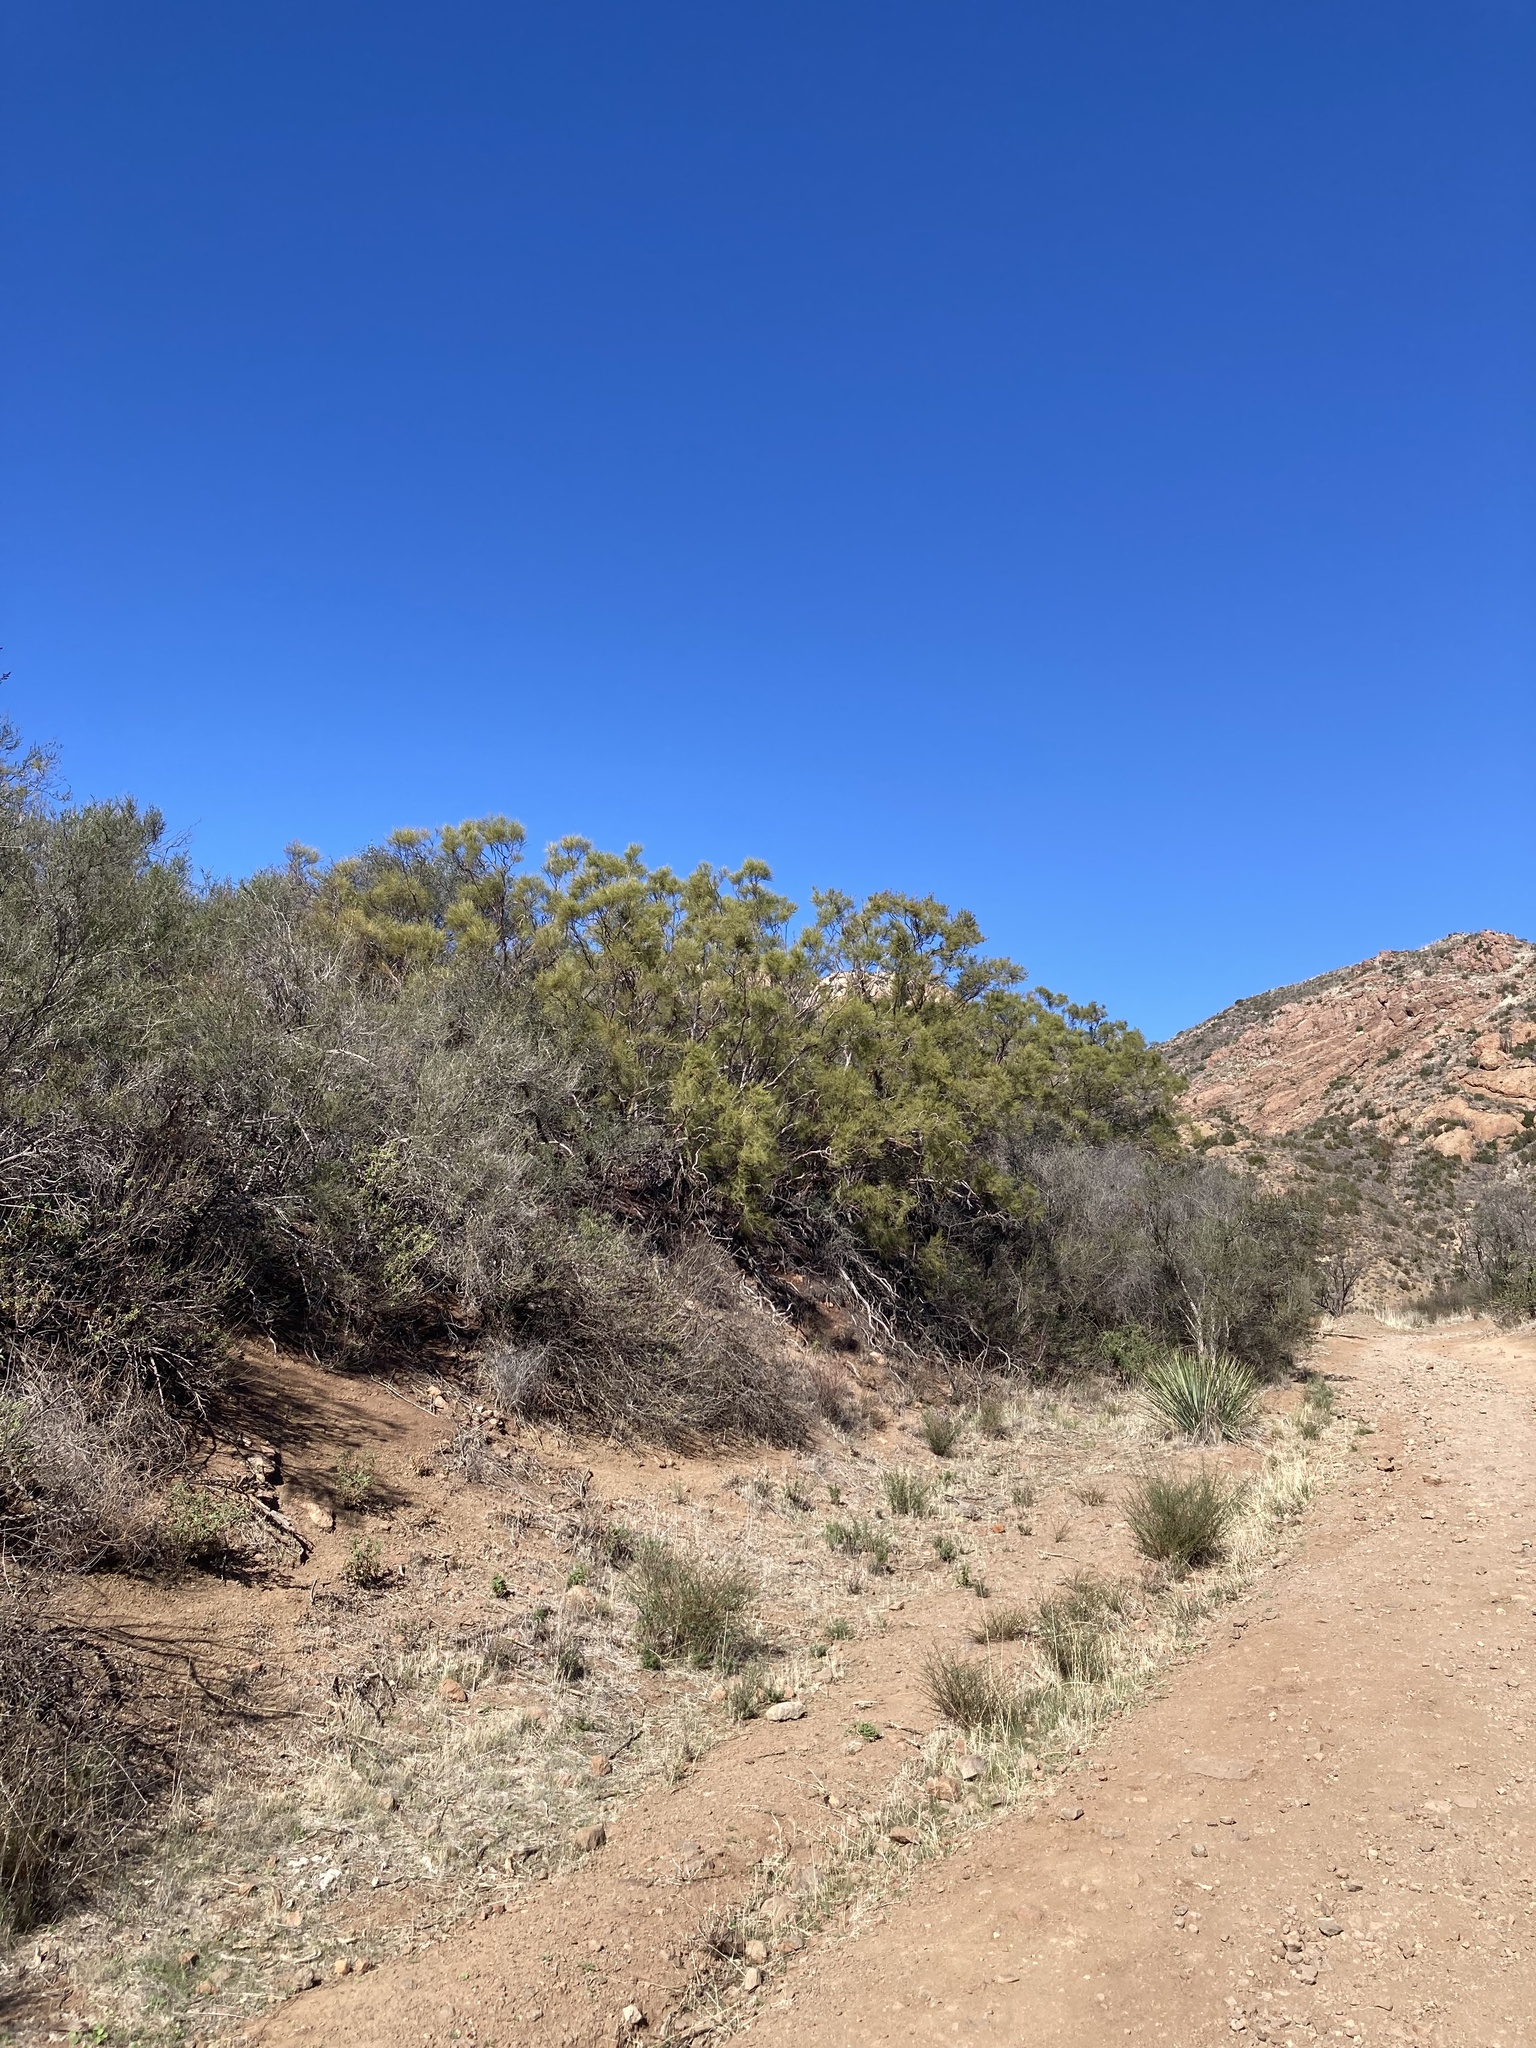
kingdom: Plantae
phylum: Tracheophyta
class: Magnoliopsida
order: Rosales
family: Rosaceae
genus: Adenostoma
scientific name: Adenostoma sparsifolium
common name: Red shank
